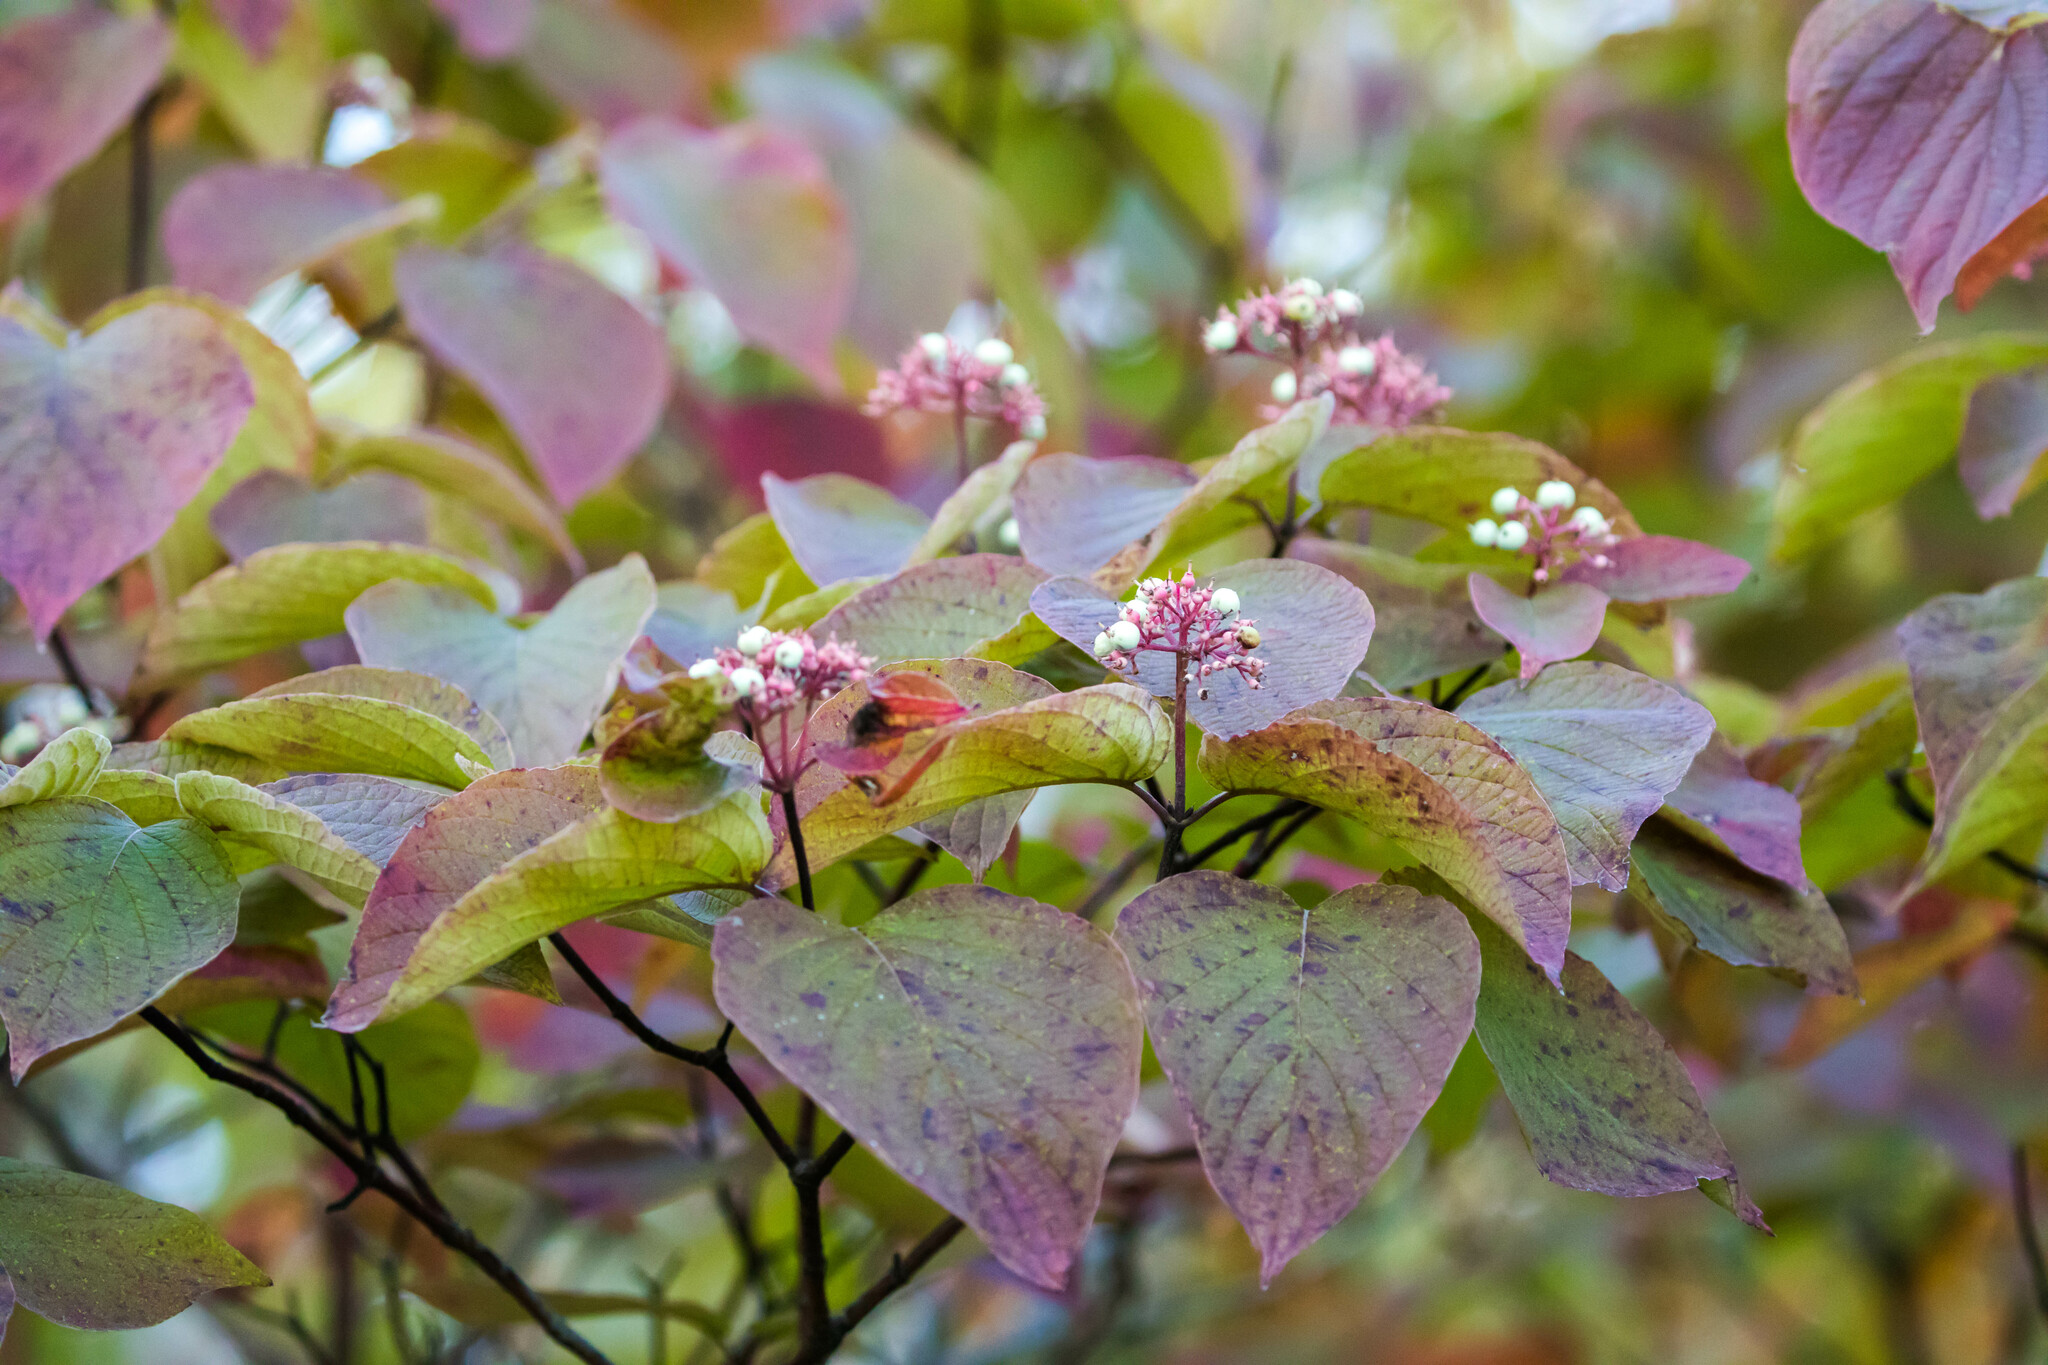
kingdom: Plantae
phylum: Tracheophyta
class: Magnoliopsida
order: Cornales
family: Cornaceae
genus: Cornus
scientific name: Cornus rugosa
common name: Round-leaf dogwood
